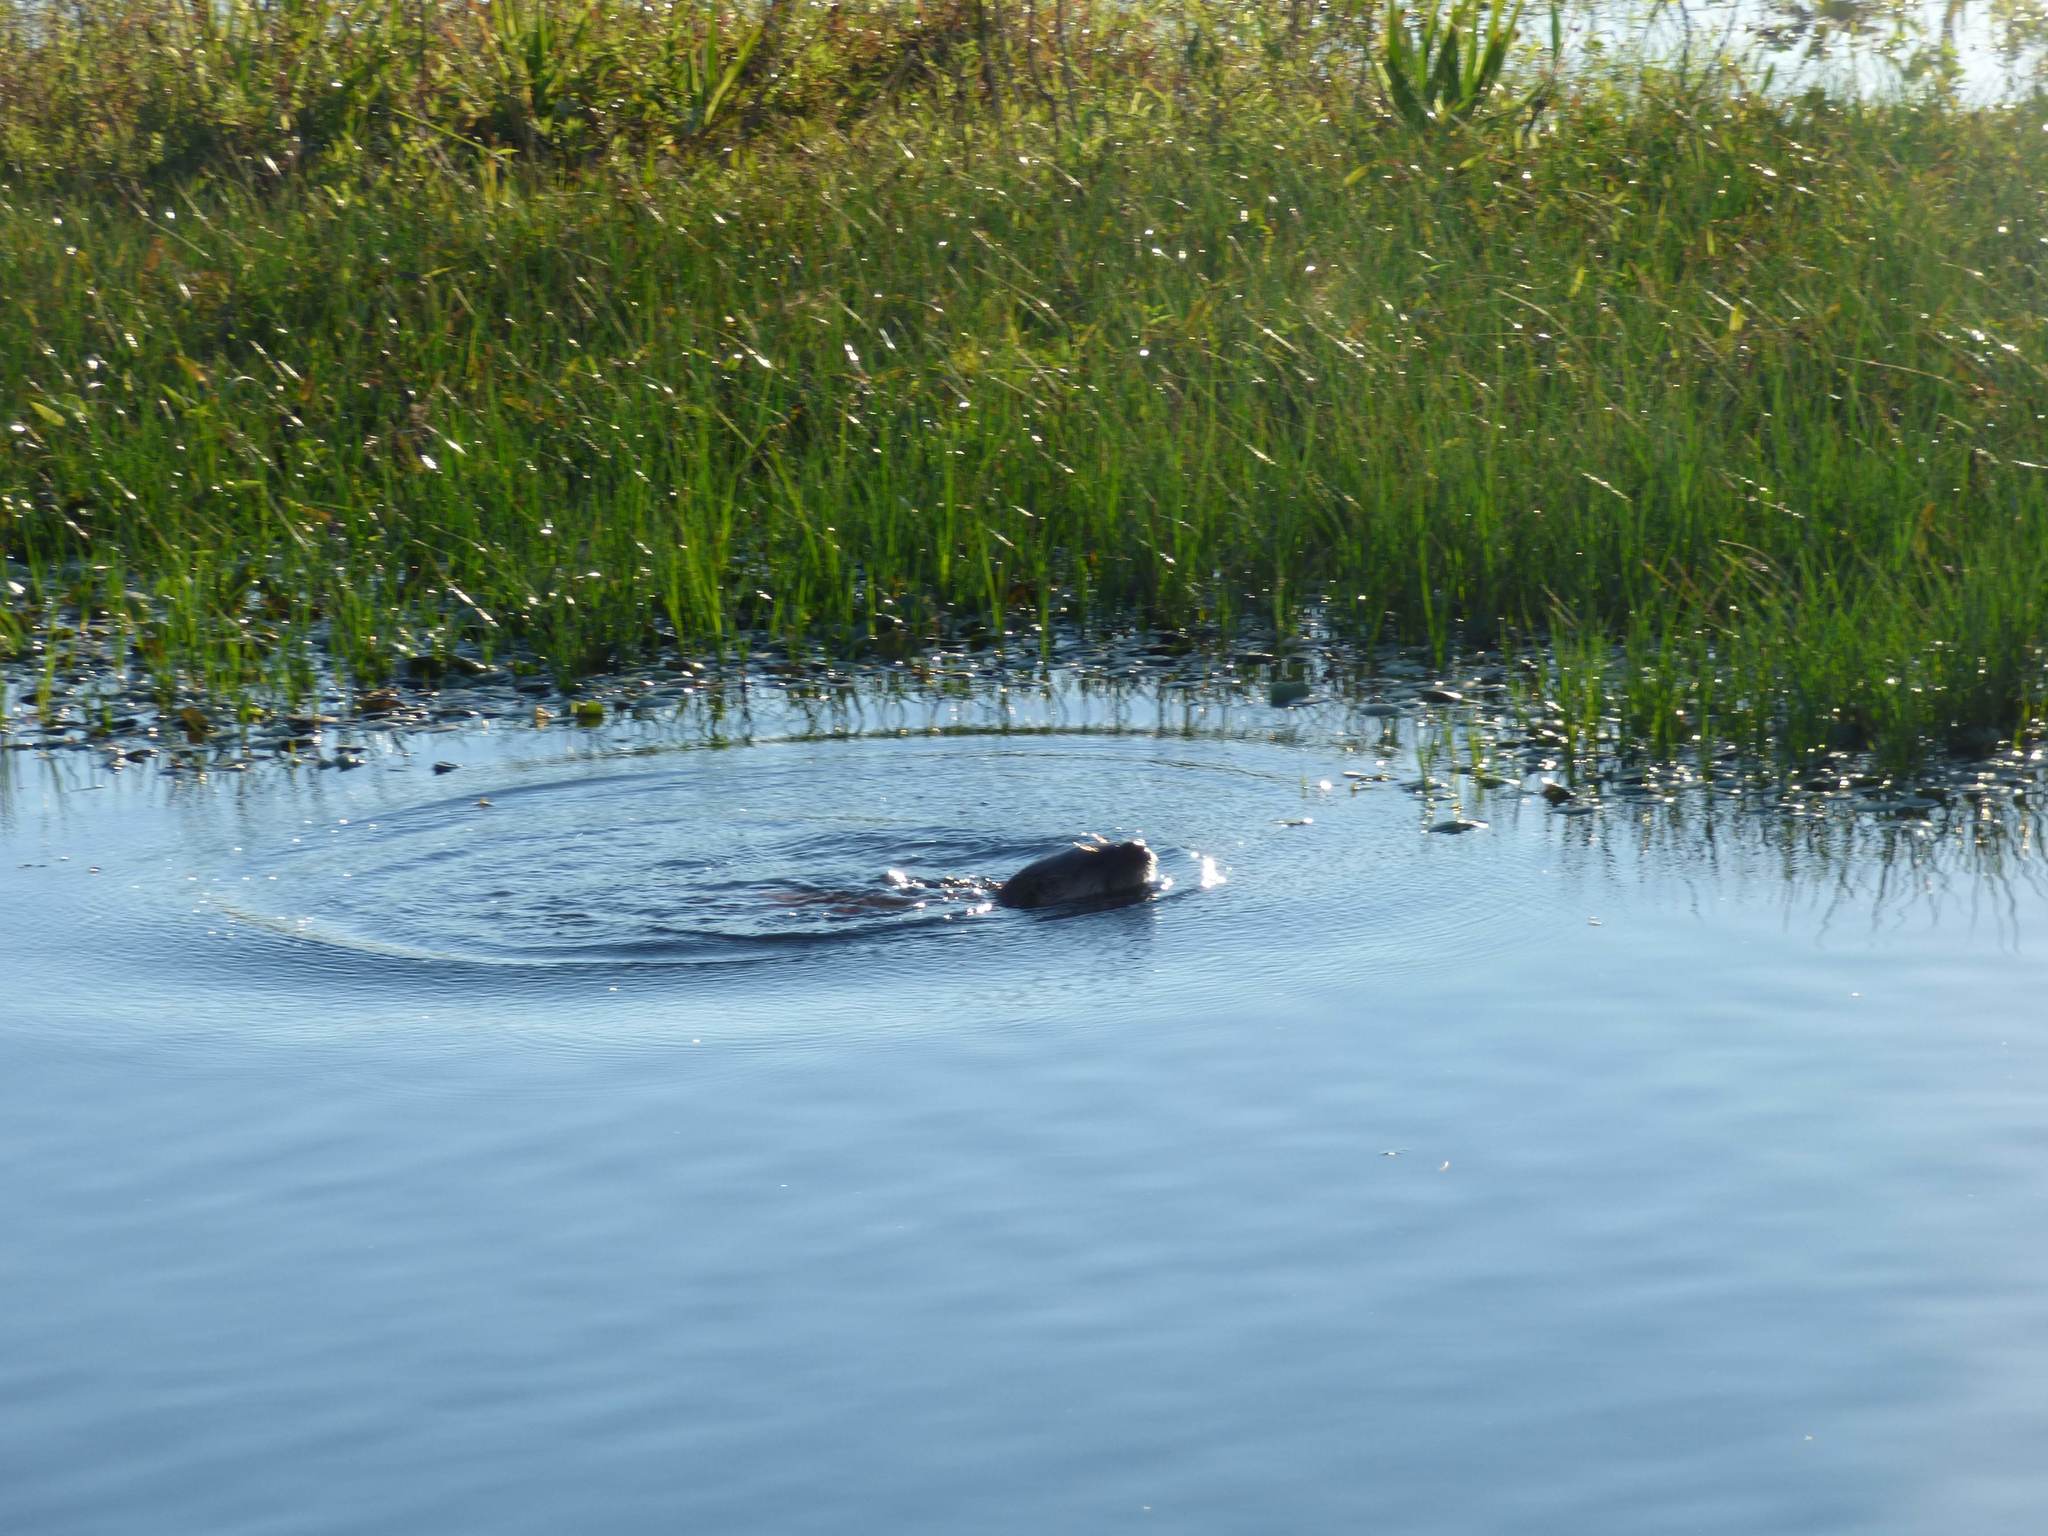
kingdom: Animalia
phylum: Chordata
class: Mammalia
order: Carnivora
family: Mustelidae
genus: Lontra
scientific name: Lontra longicaudis
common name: Neotropical otter
